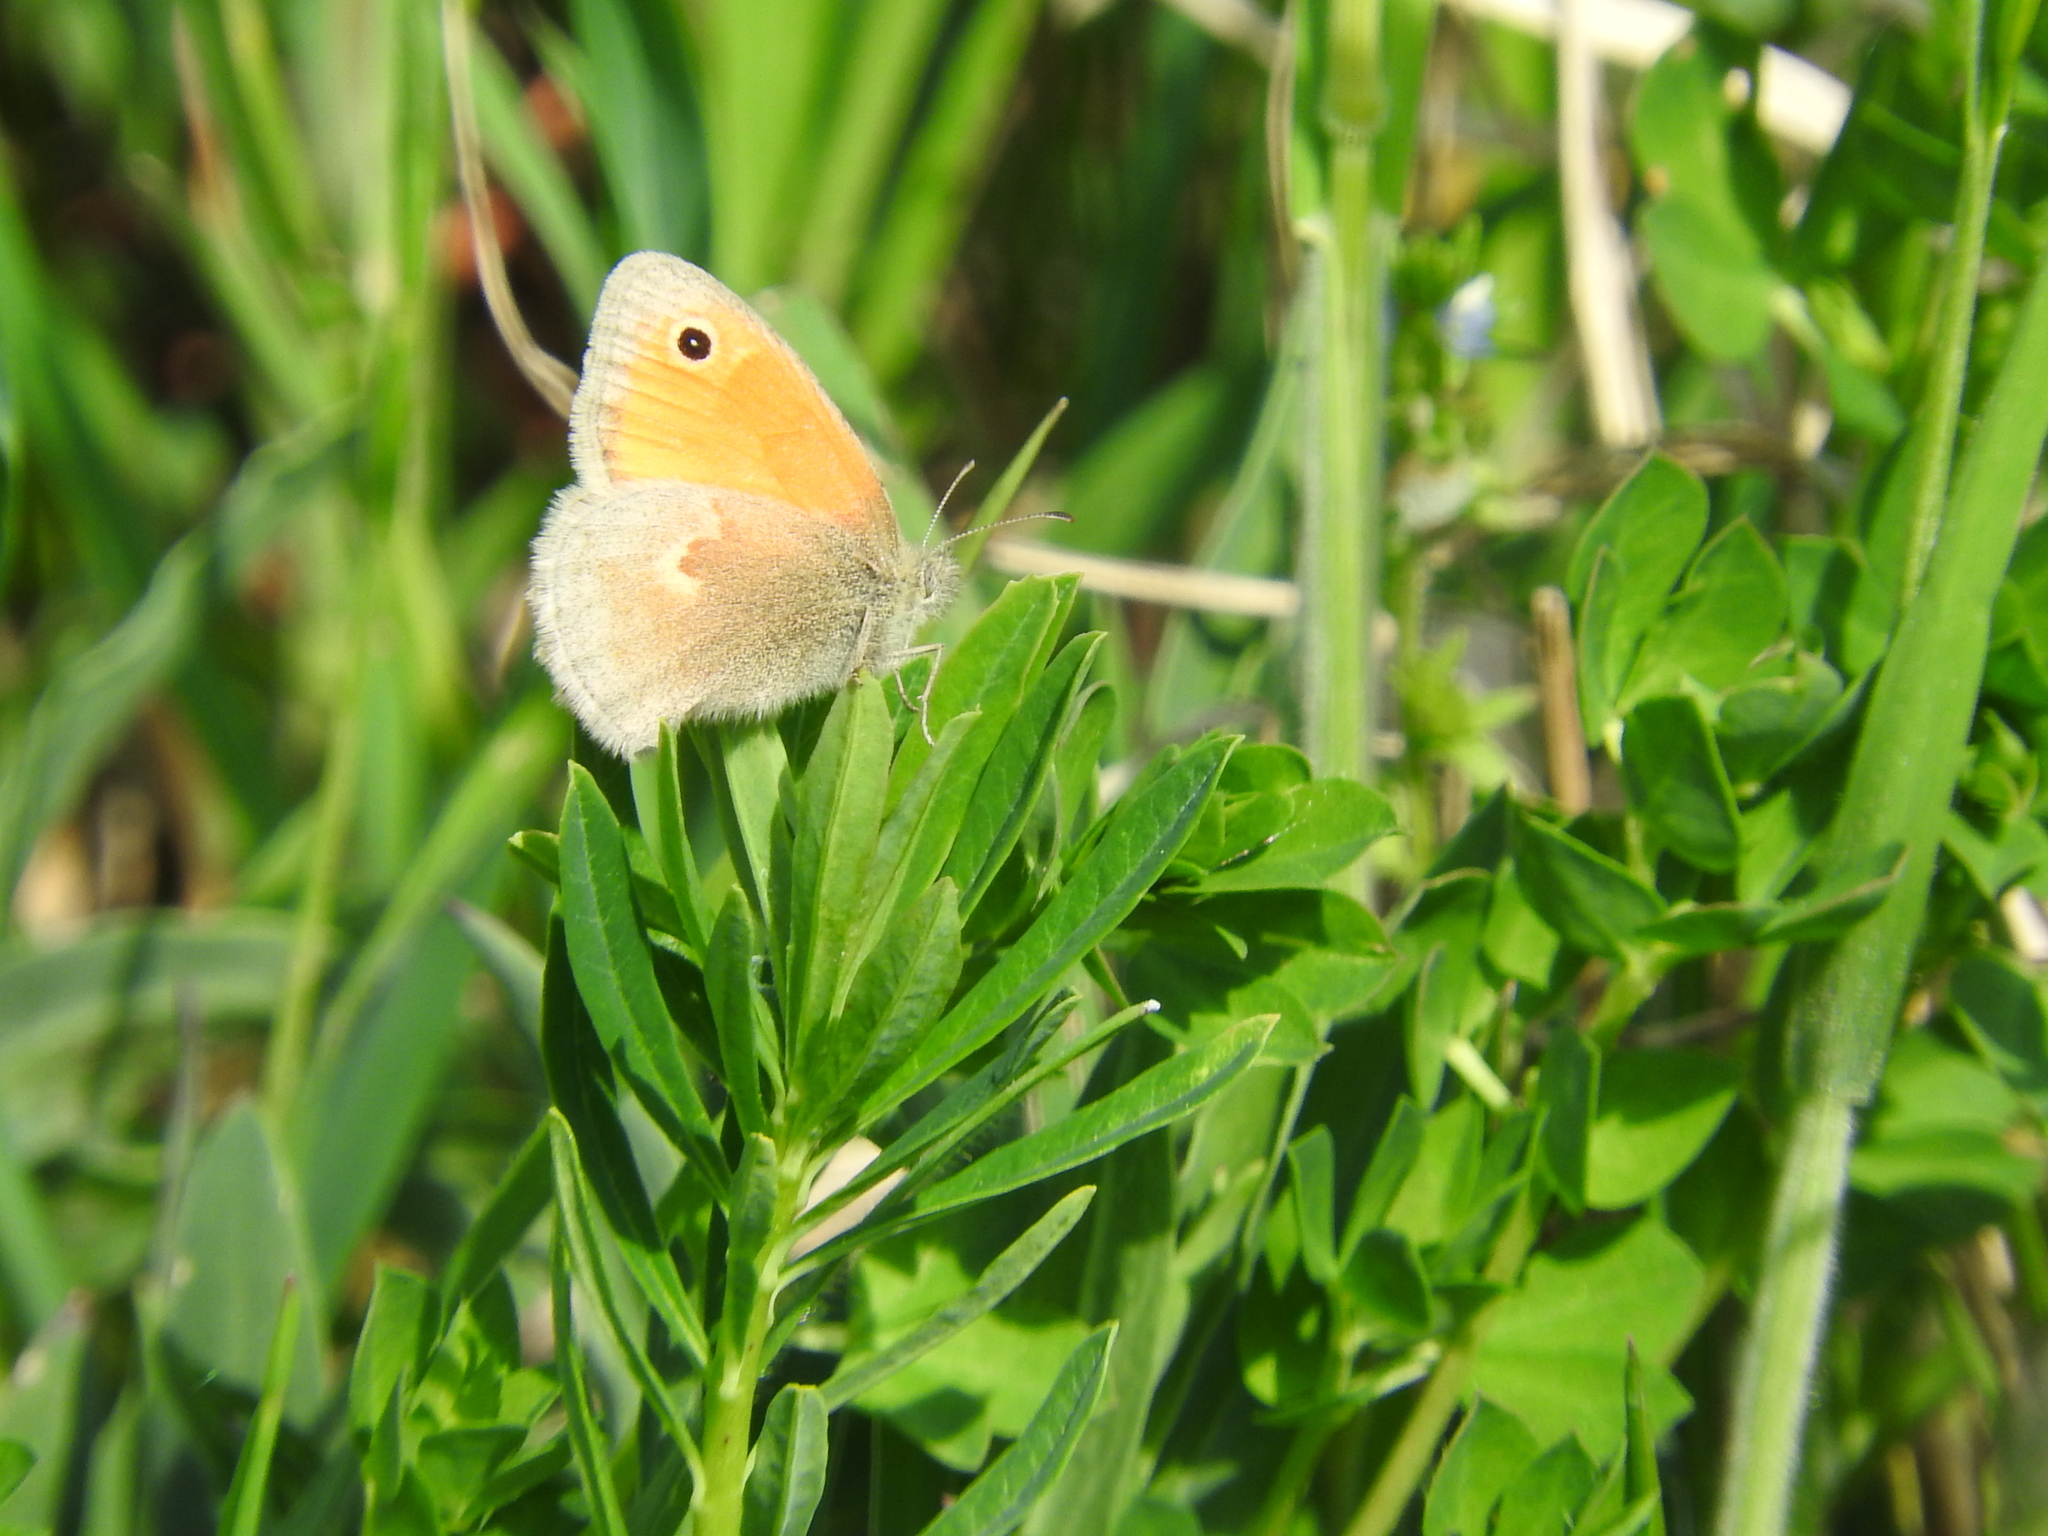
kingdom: Animalia
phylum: Arthropoda
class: Insecta
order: Lepidoptera
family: Nymphalidae
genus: Coenonympha
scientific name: Coenonympha pamphilus
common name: Small heath
